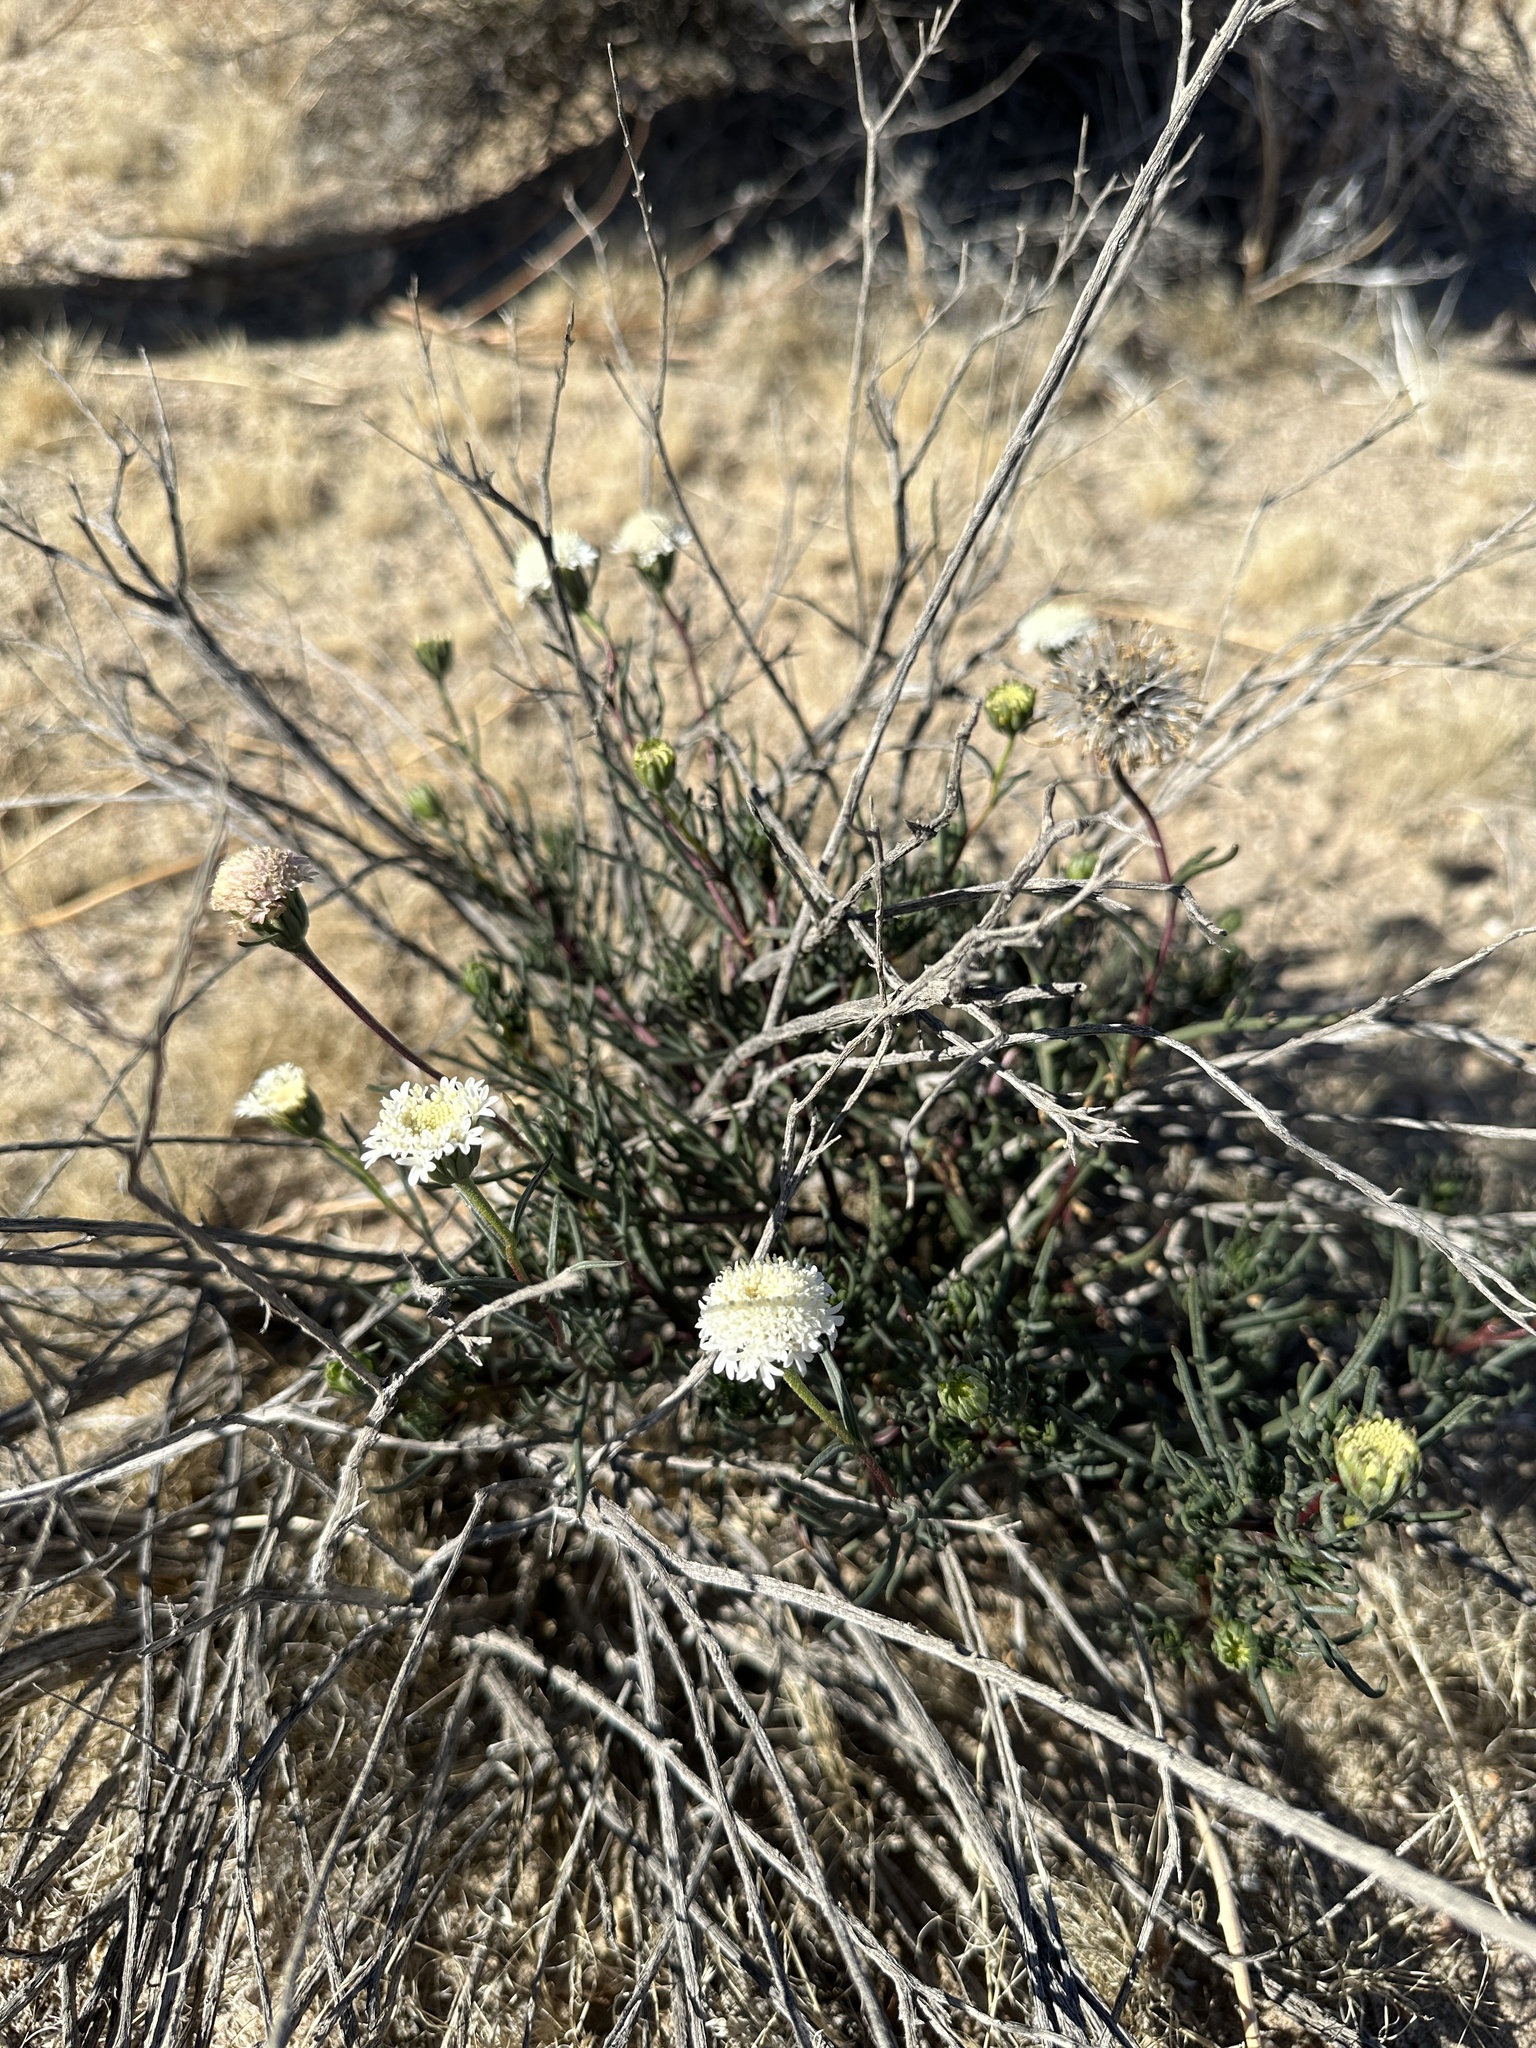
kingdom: Plantae
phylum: Tracheophyta
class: Magnoliopsida
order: Asterales
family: Asteraceae
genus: Chaenactis
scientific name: Chaenactis stevioides
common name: Desert pincushion
